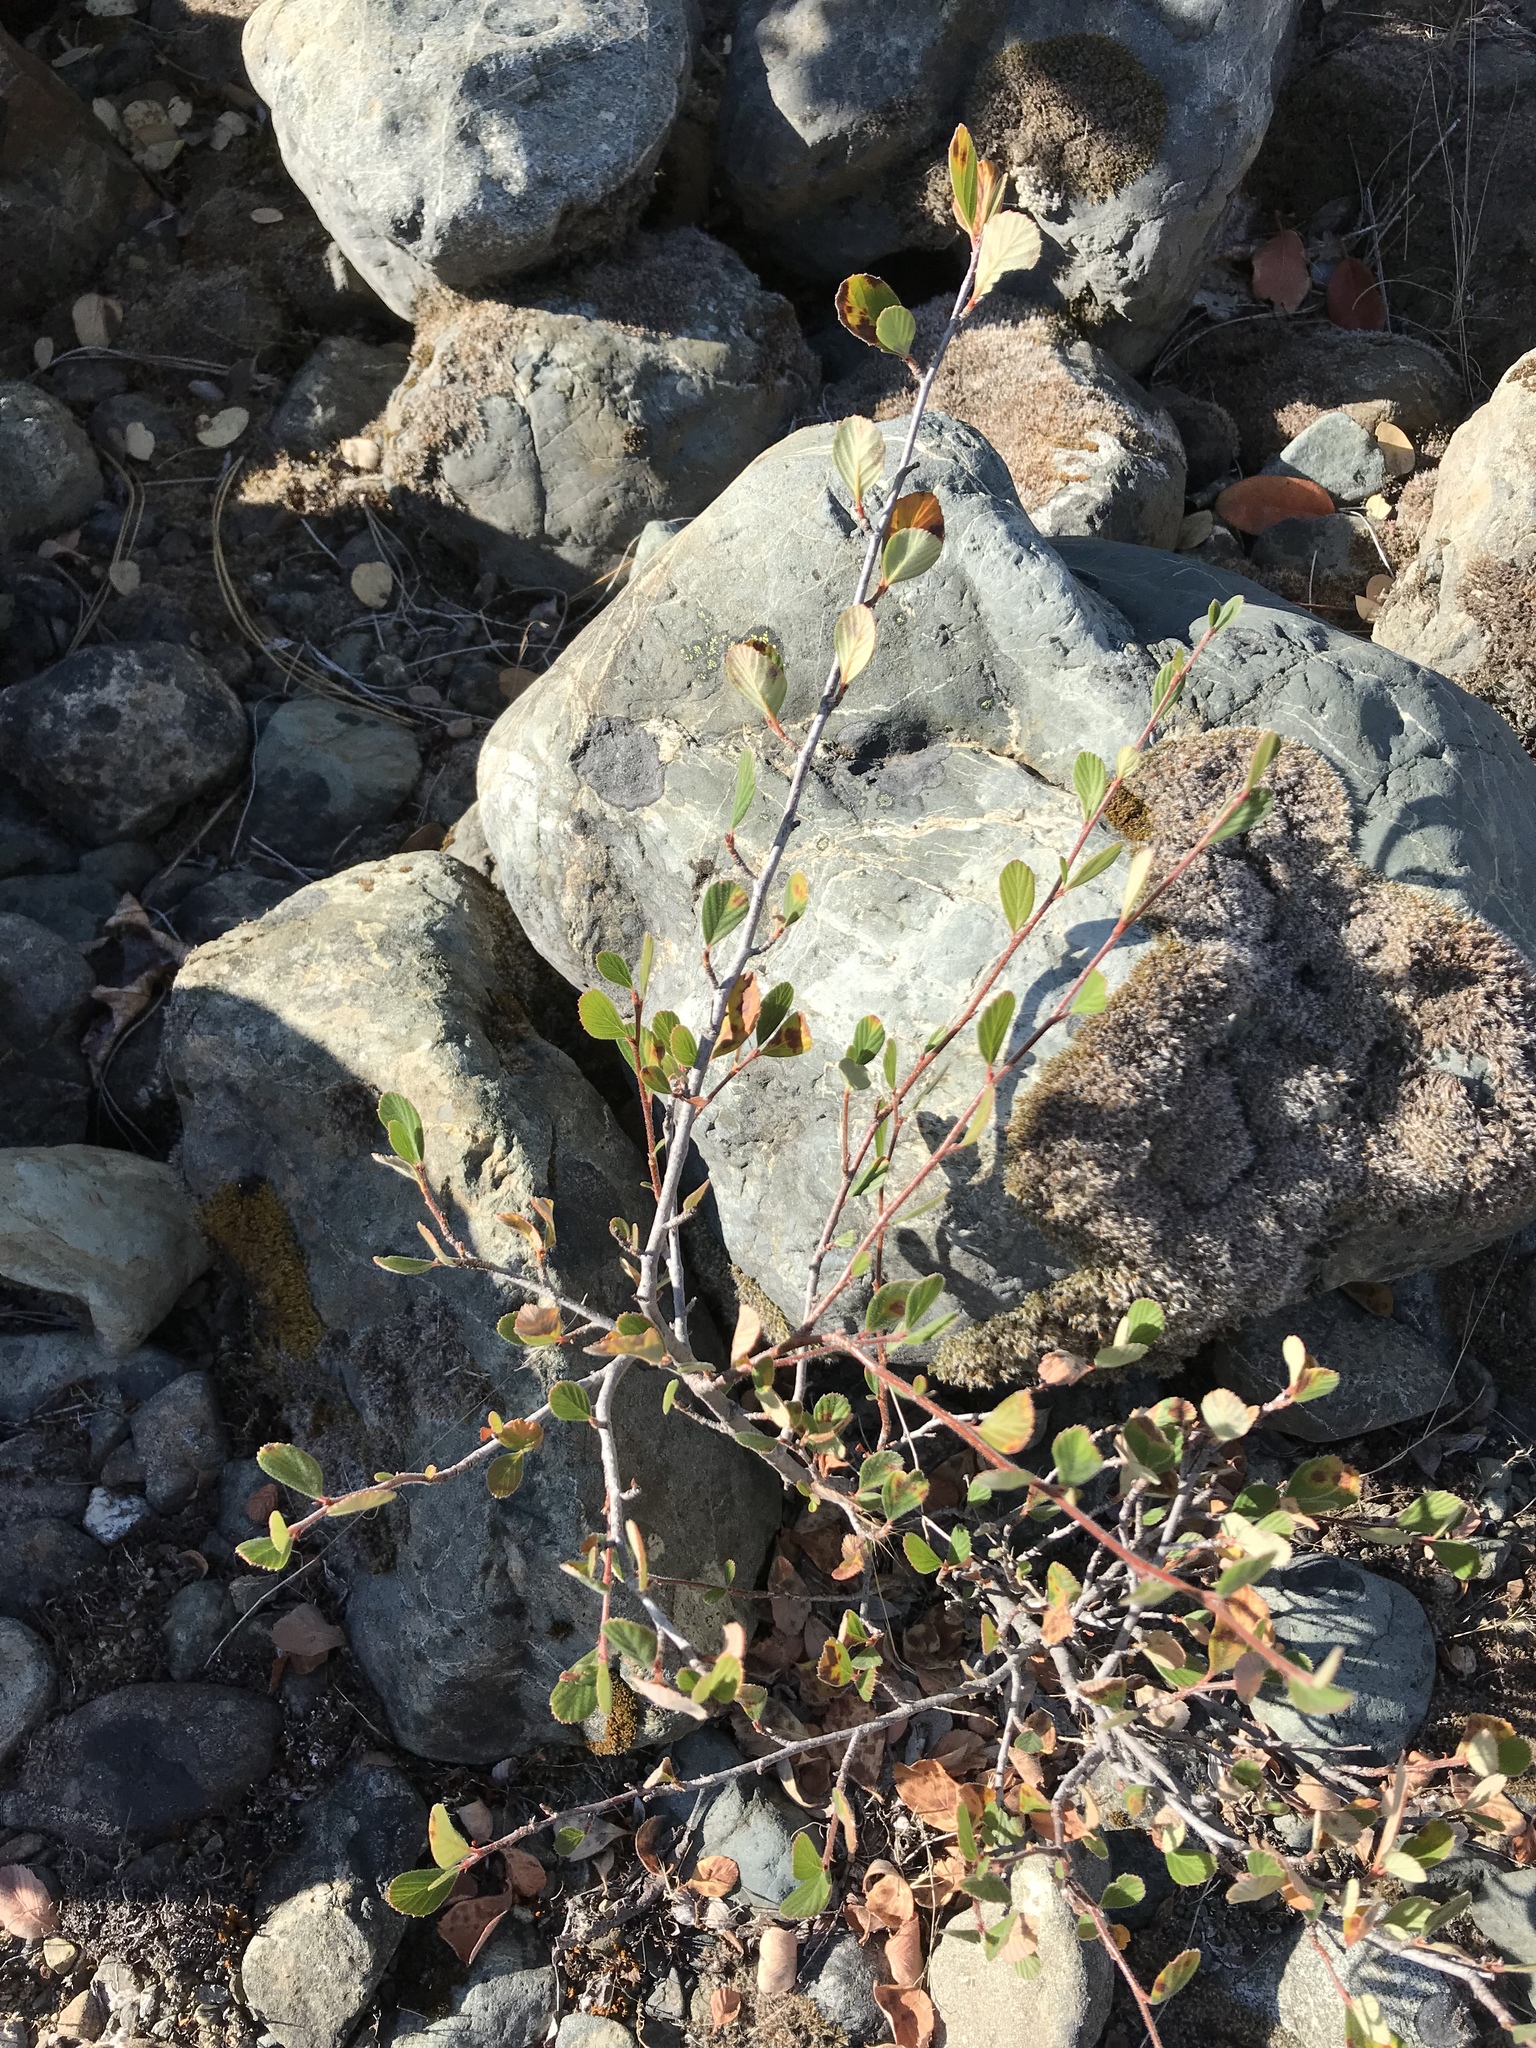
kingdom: Plantae
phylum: Tracheophyta
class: Magnoliopsida
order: Rosales
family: Rosaceae
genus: Cercocarpus
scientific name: Cercocarpus betuloides
